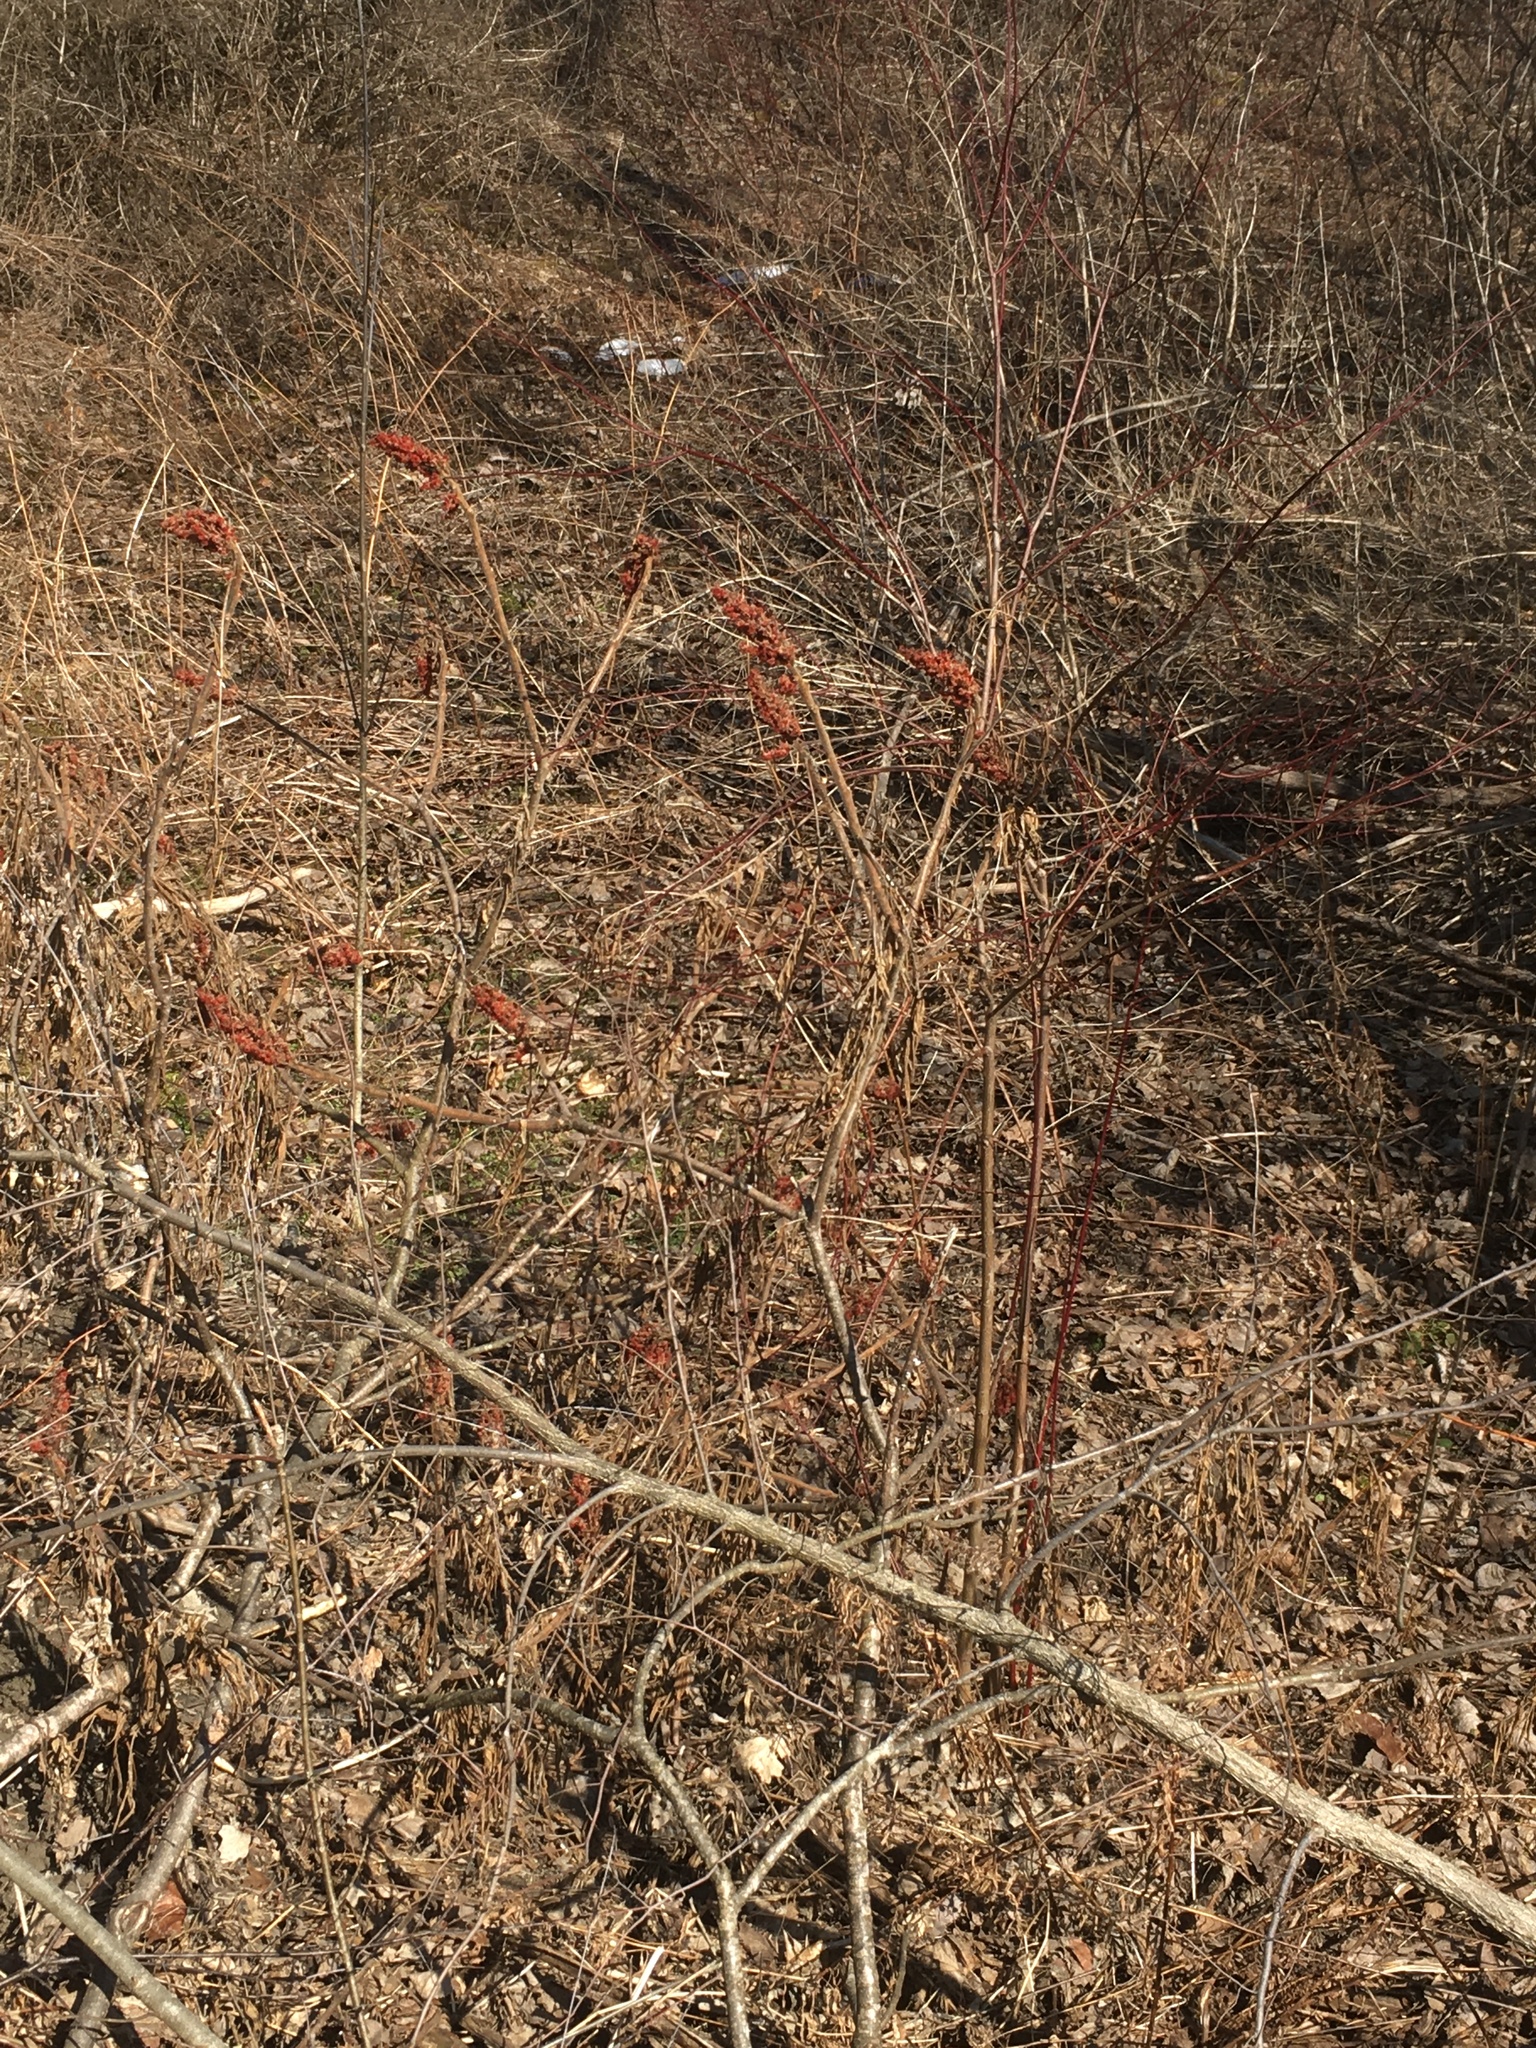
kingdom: Plantae
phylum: Tracheophyta
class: Magnoliopsida
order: Sapindales
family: Anacardiaceae
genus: Rhus
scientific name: Rhus typhina
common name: Staghorn sumac
